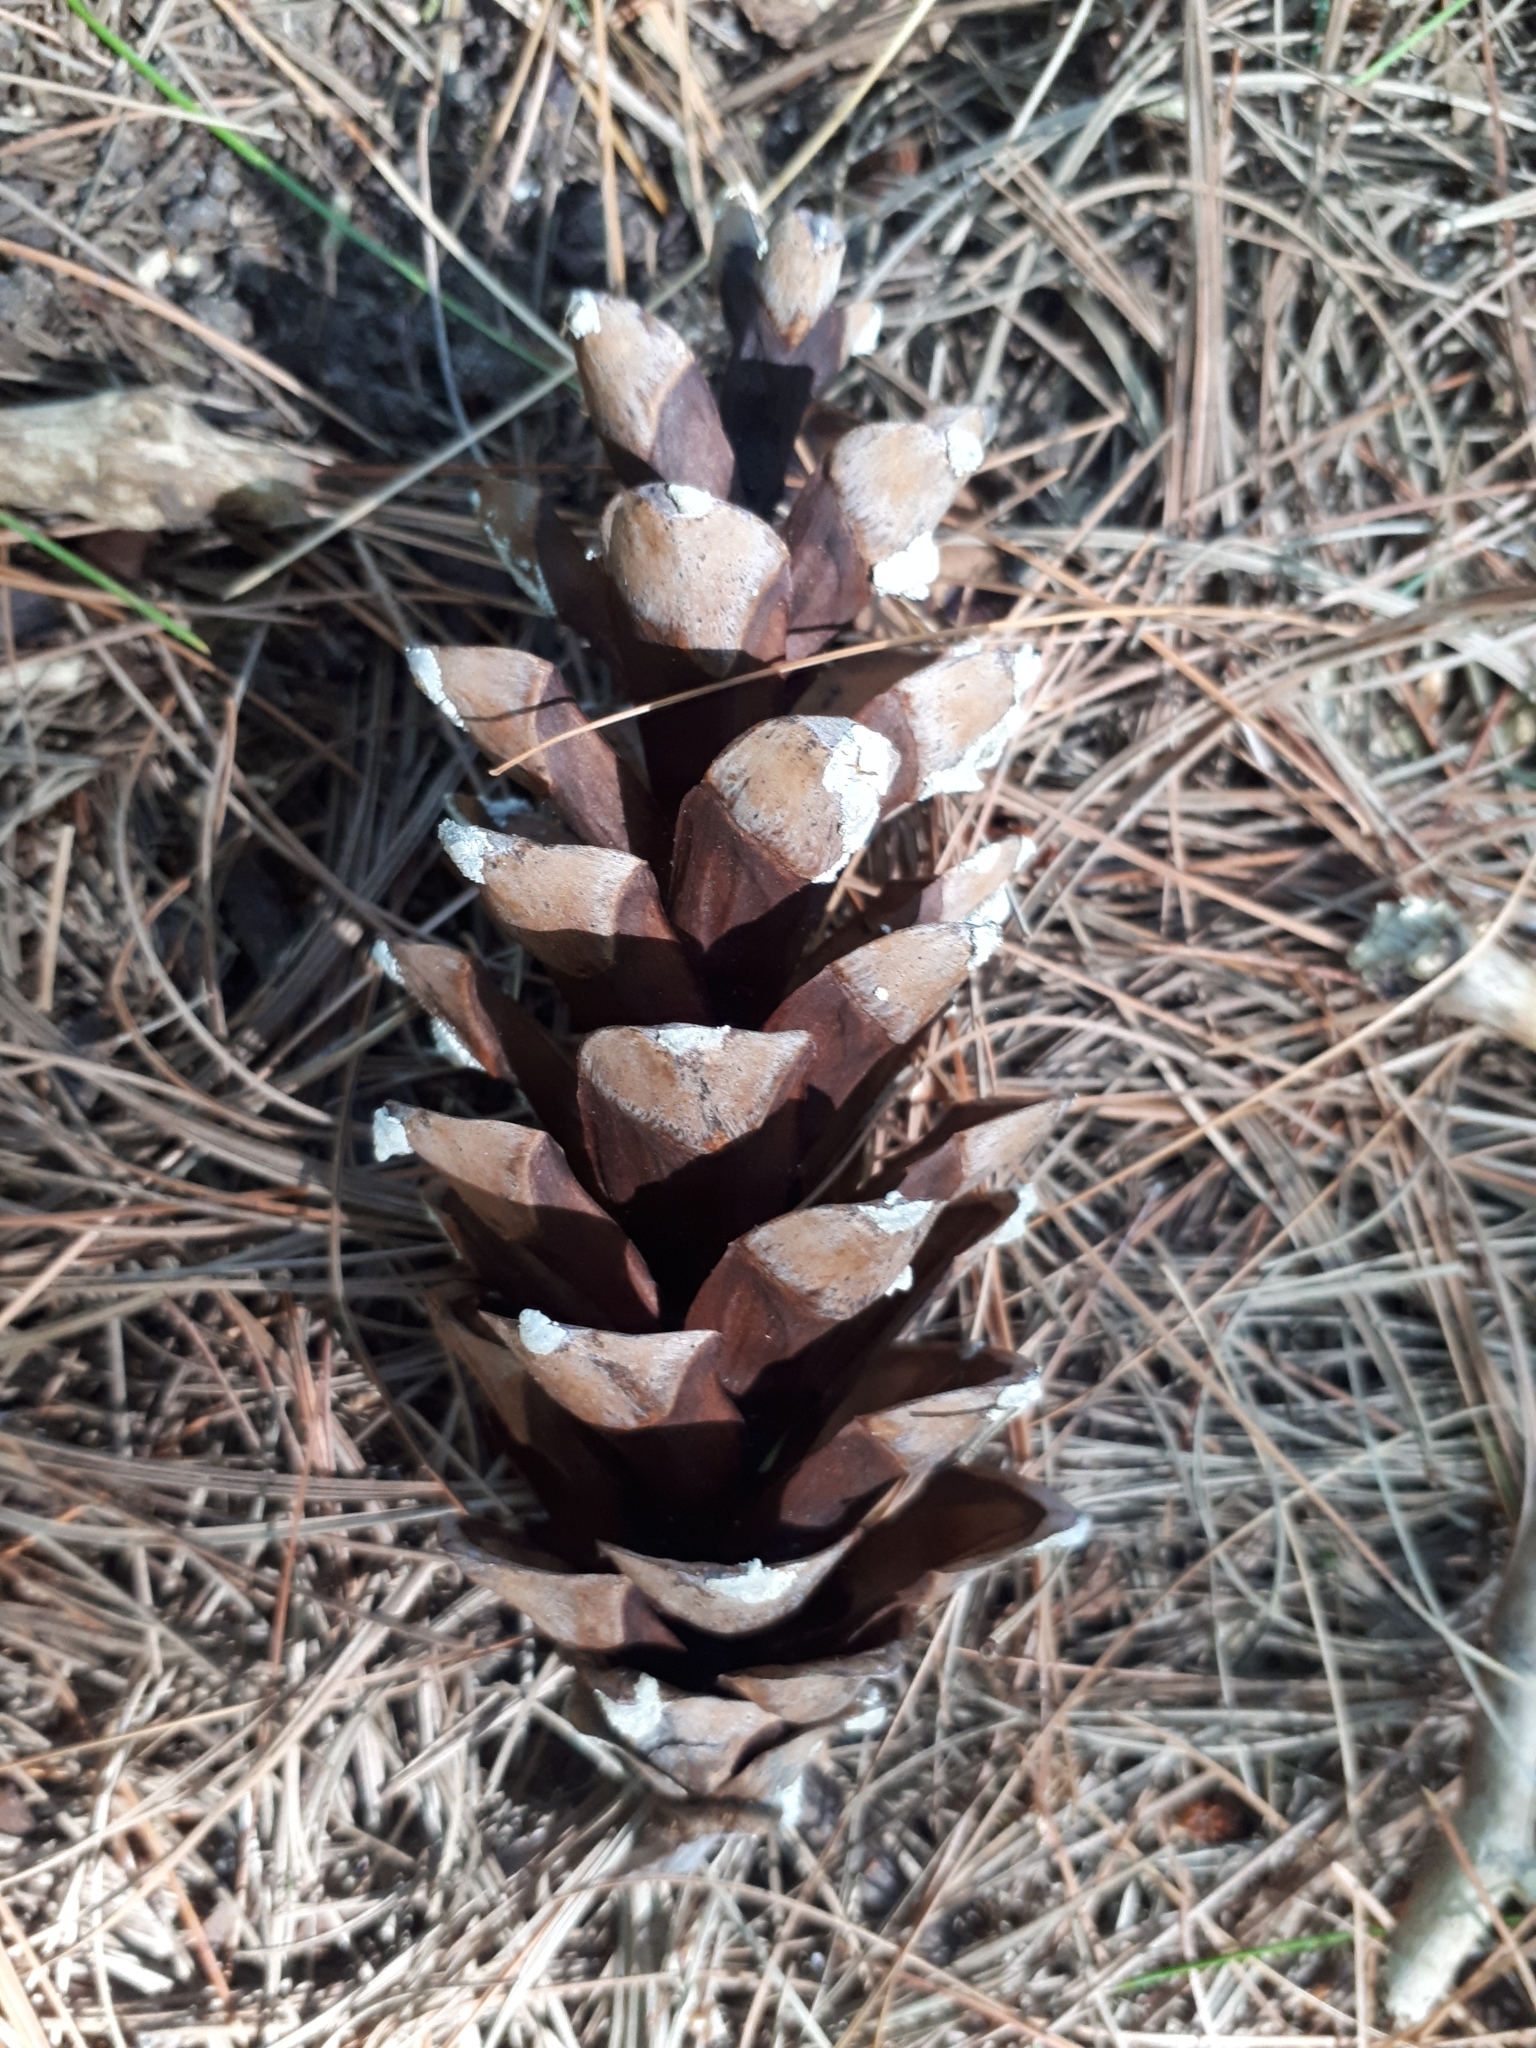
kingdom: Plantae
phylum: Tracheophyta
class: Pinopsida
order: Pinales
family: Pinaceae
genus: Pinus
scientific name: Pinus strobus
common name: Weymouth pine
